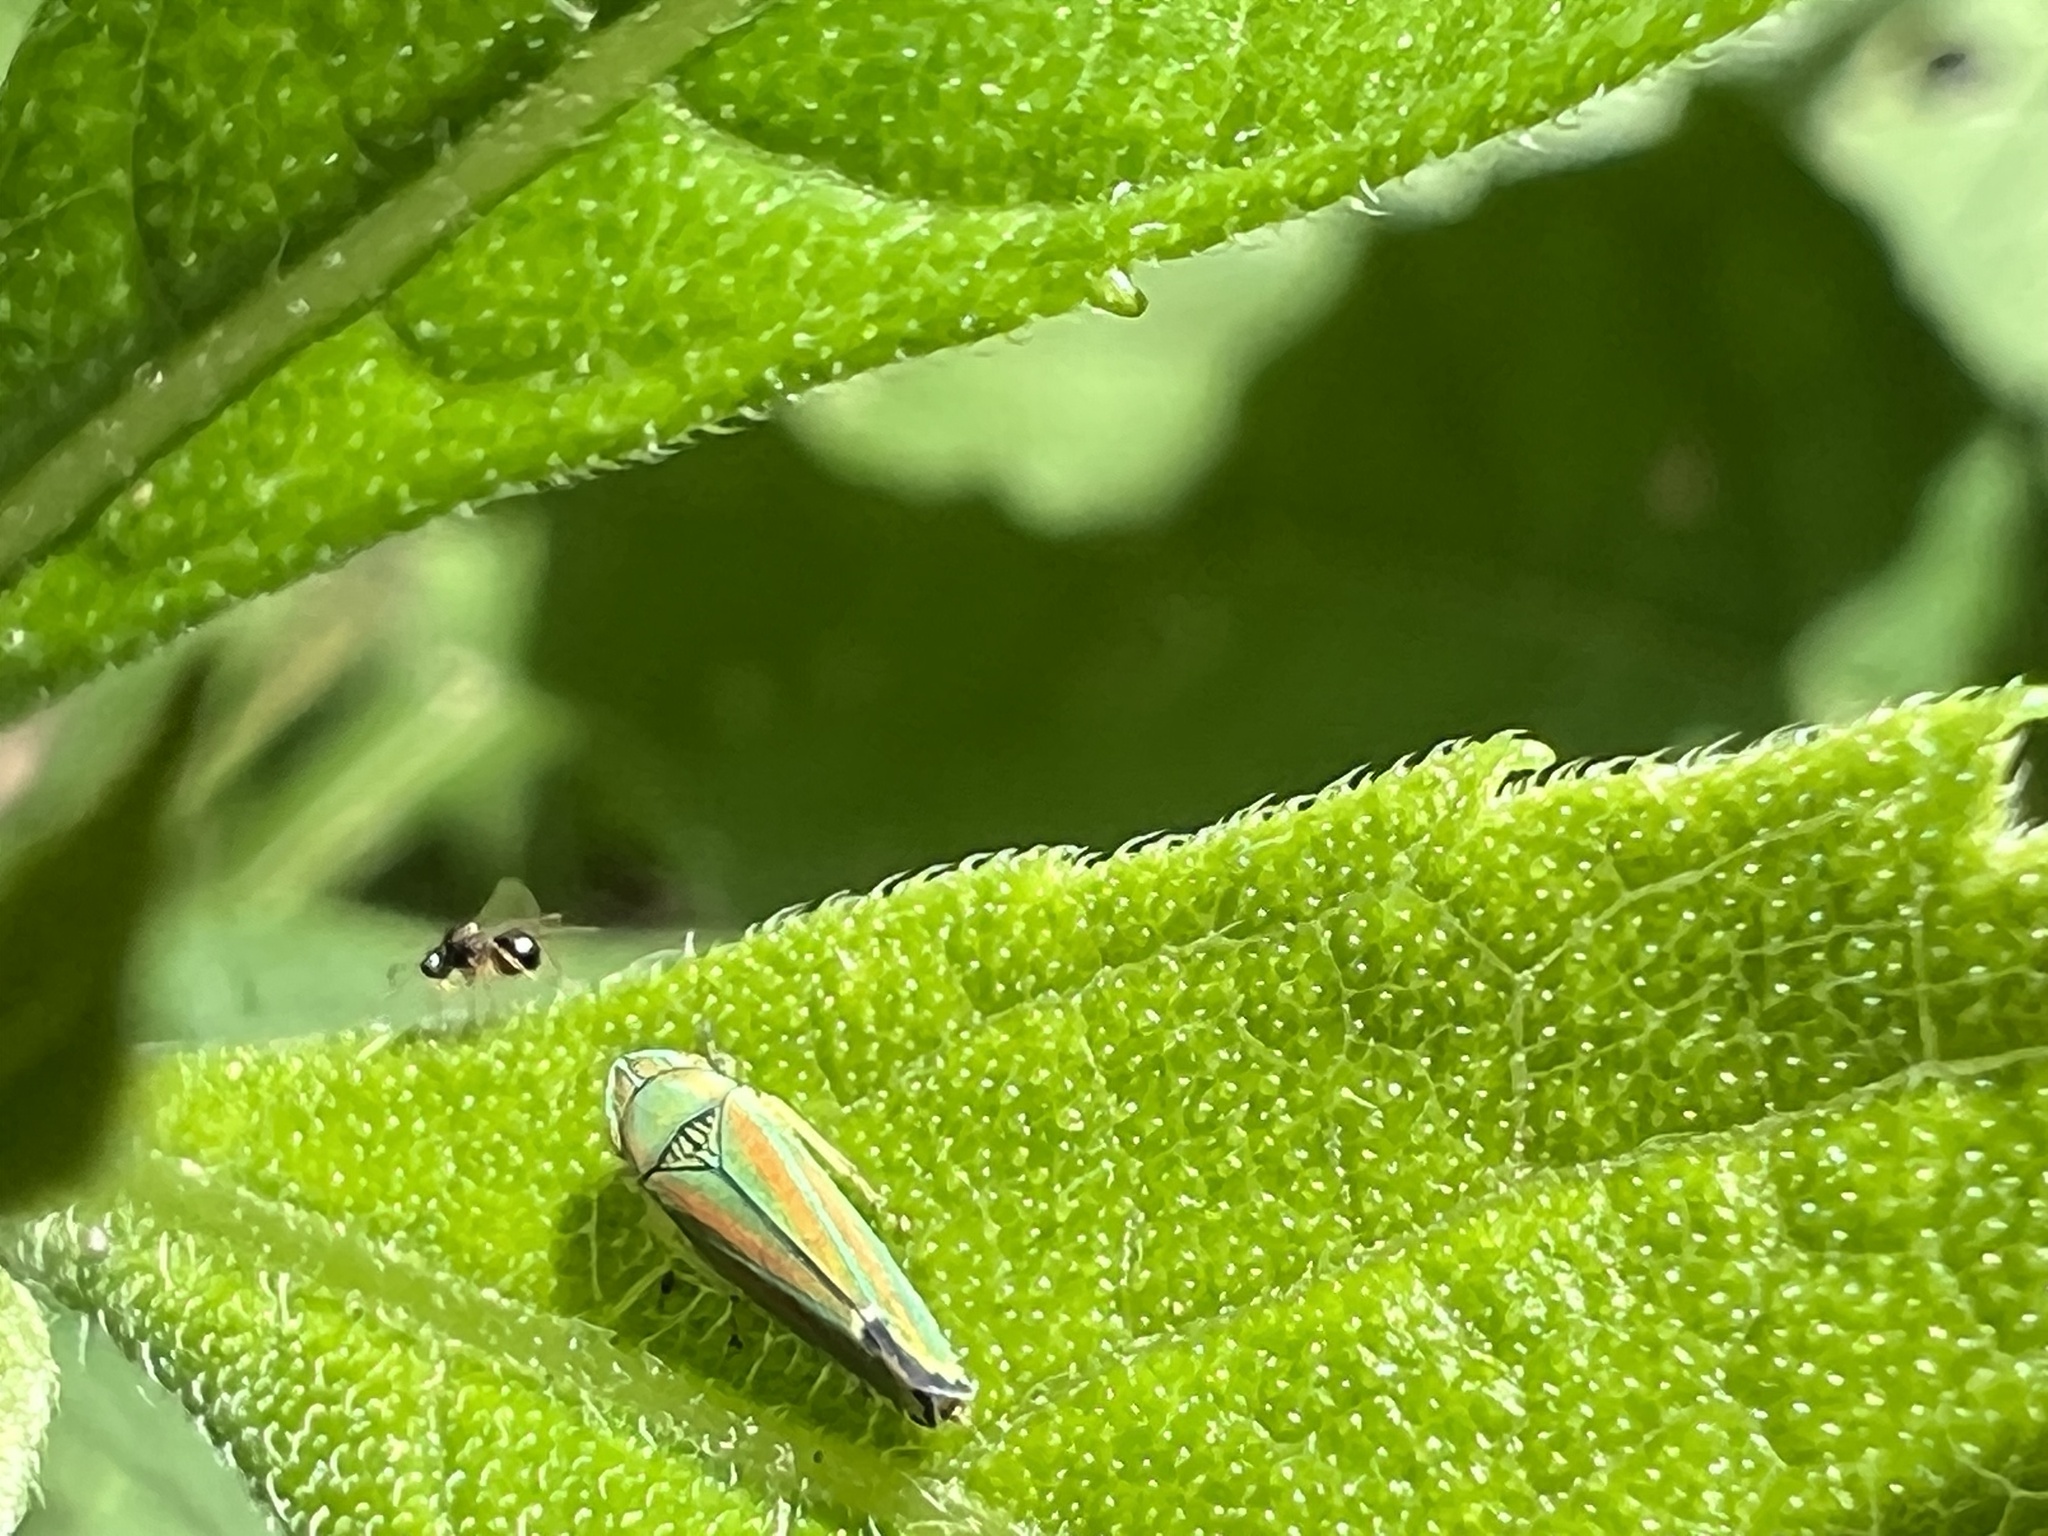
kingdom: Animalia
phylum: Arthropoda
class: Insecta
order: Hemiptera
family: Cicadellidae
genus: Graphocephala
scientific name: Graphocephala versuta
